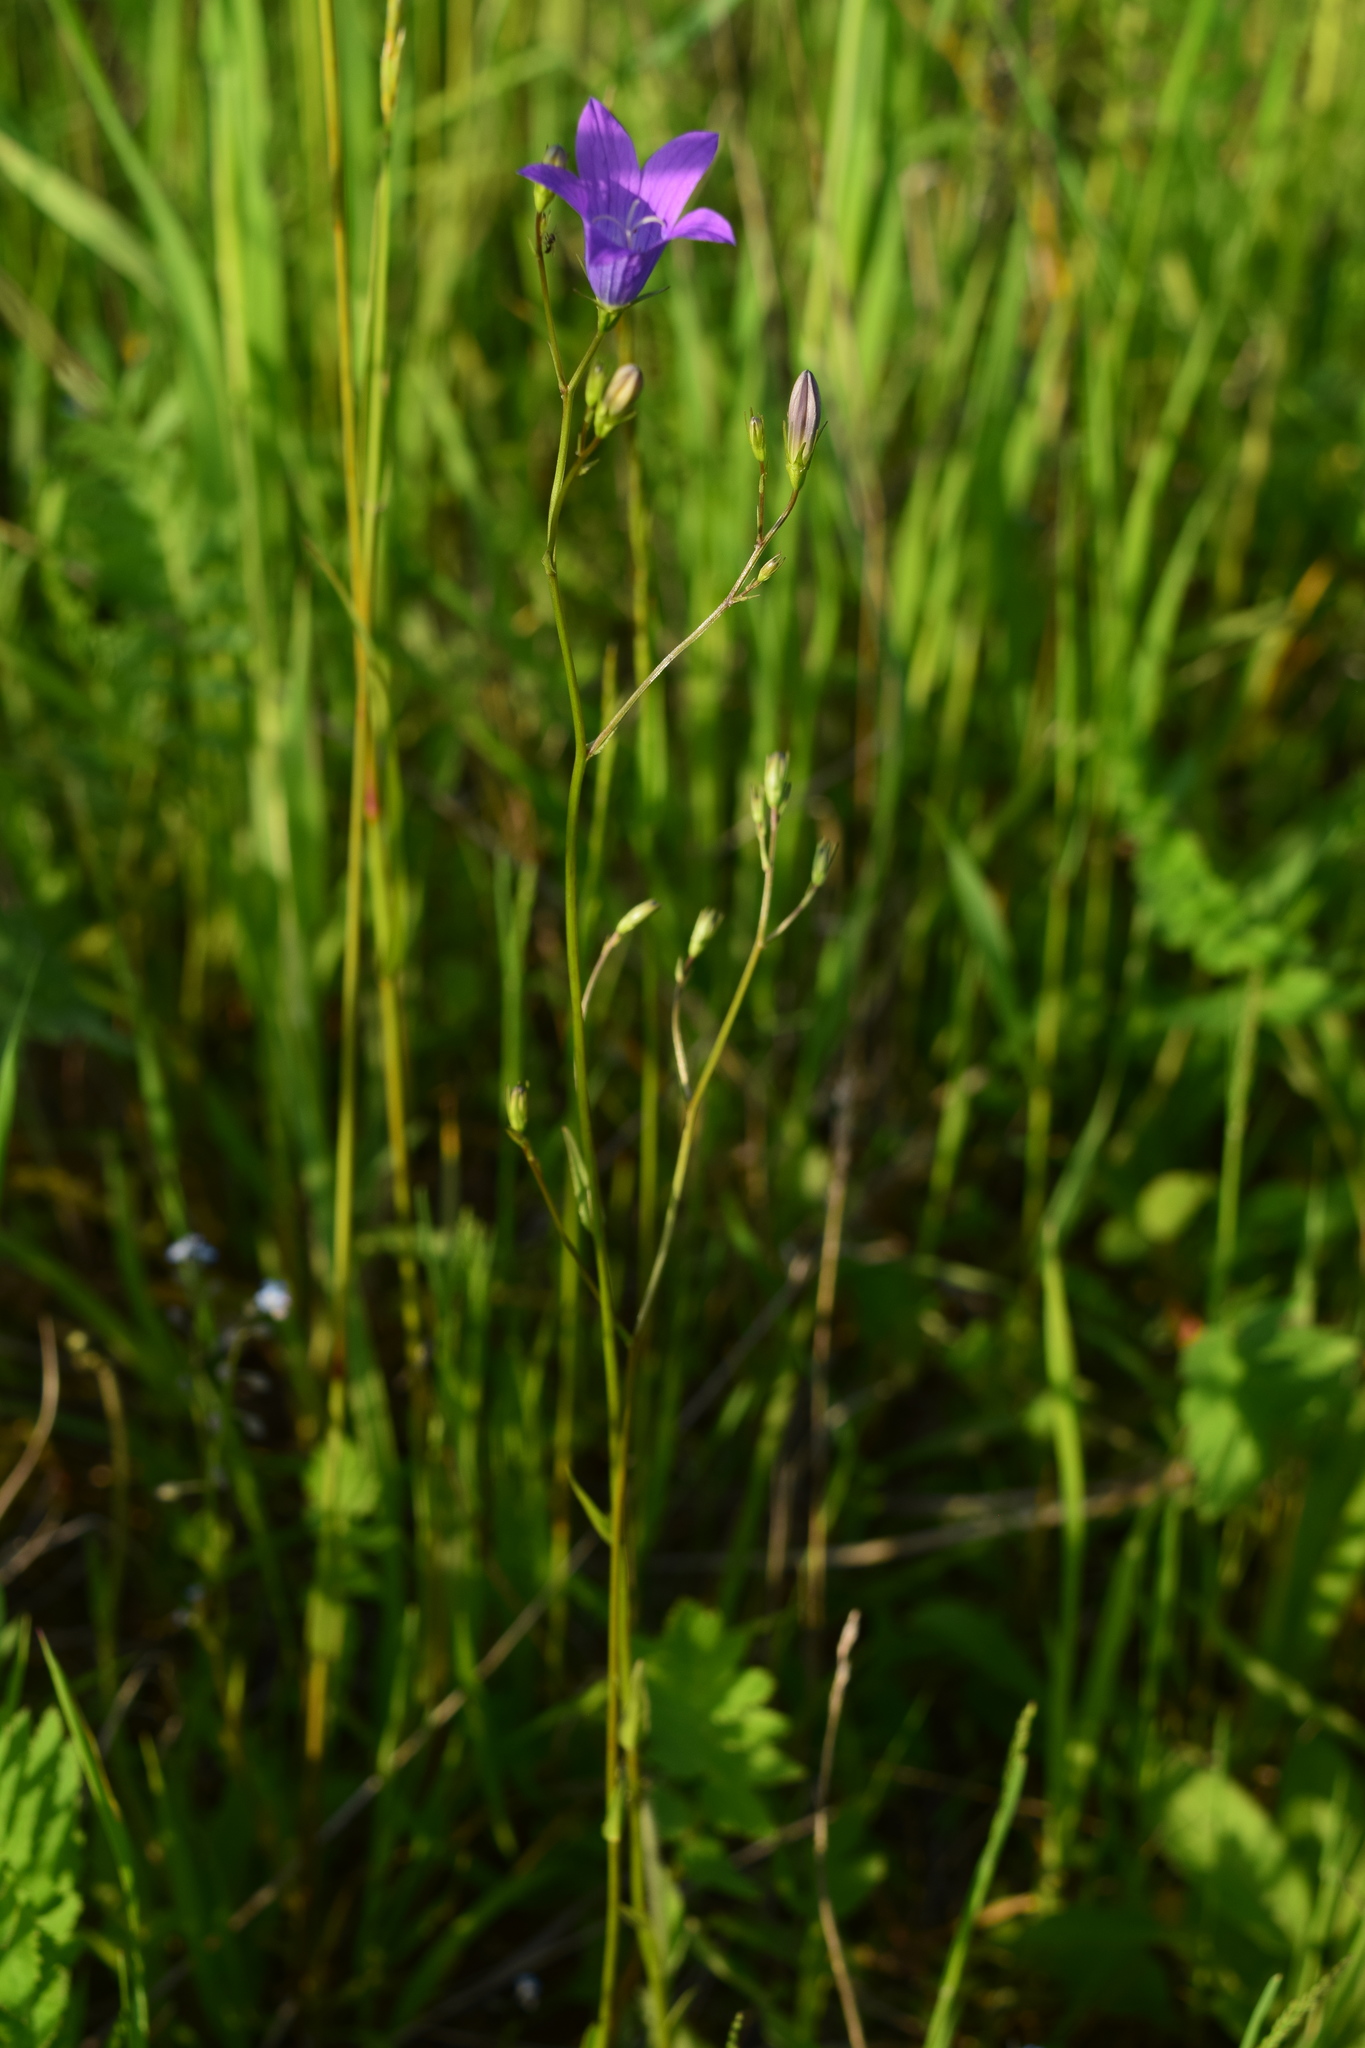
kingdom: Plantae
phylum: Tracheophyta
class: Magnoliopsida
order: Asterales
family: Campanulaceae
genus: Campanula
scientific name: Campanula patula
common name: Spreading bellflower
